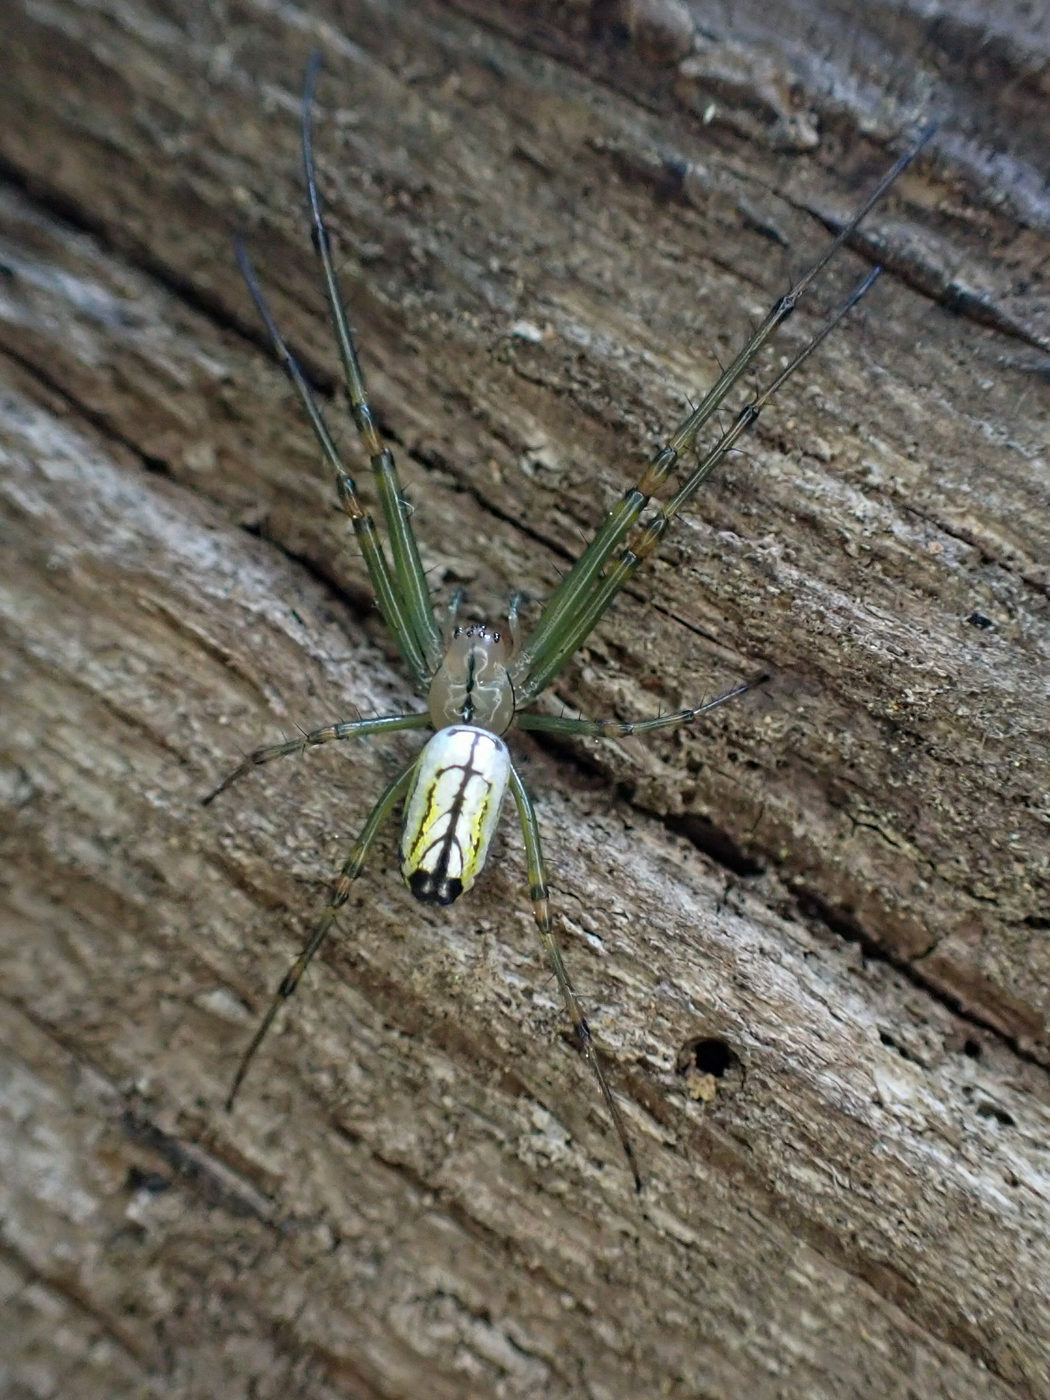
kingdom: Animalia
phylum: Arthropoda
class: Arachnida
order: Araneae
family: Tetragnathidae
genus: Leucauge
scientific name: Leucauge venusta
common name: Longjawed orb weavers
